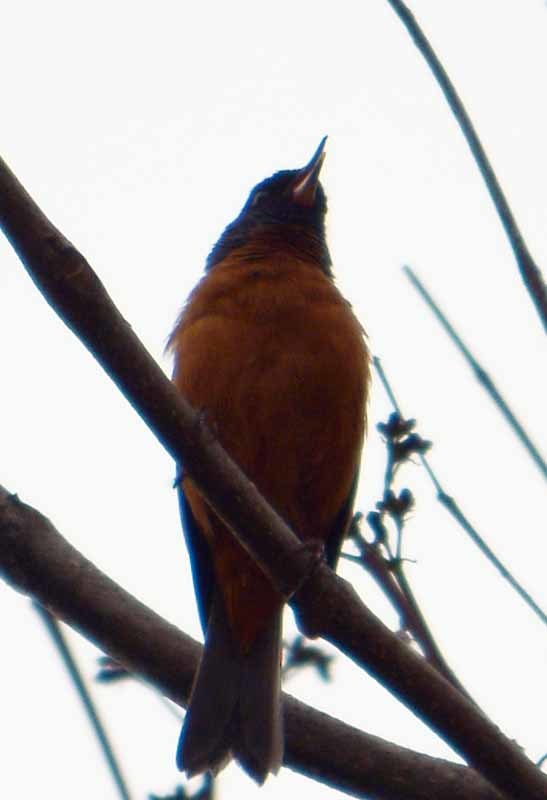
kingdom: Animalia
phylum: Chordata
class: Aves
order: Passeriformes
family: Thraupidae
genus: Diglossa
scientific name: Diglossa baritula
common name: Cinnamon-bellied flowerpiercer
